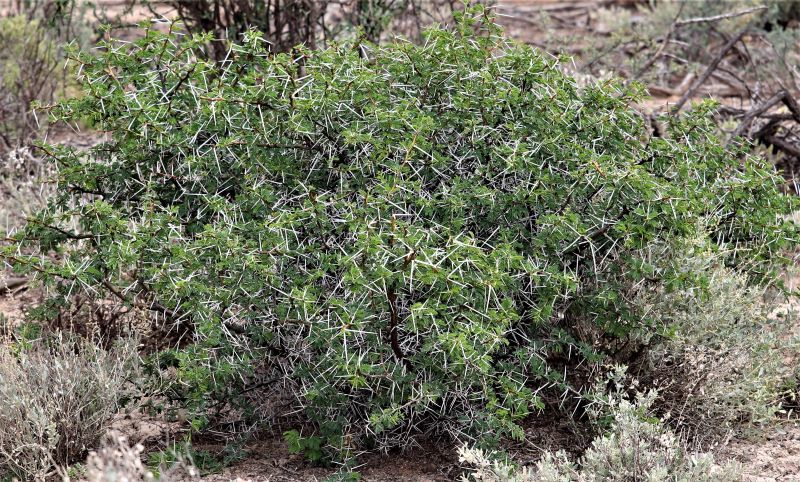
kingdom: Plantae
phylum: Tracheophyta
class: Magnoliopsida
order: Fabales
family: Fabaceae
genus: Vachellia
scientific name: Vachellia karroo
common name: Sweet thorn
